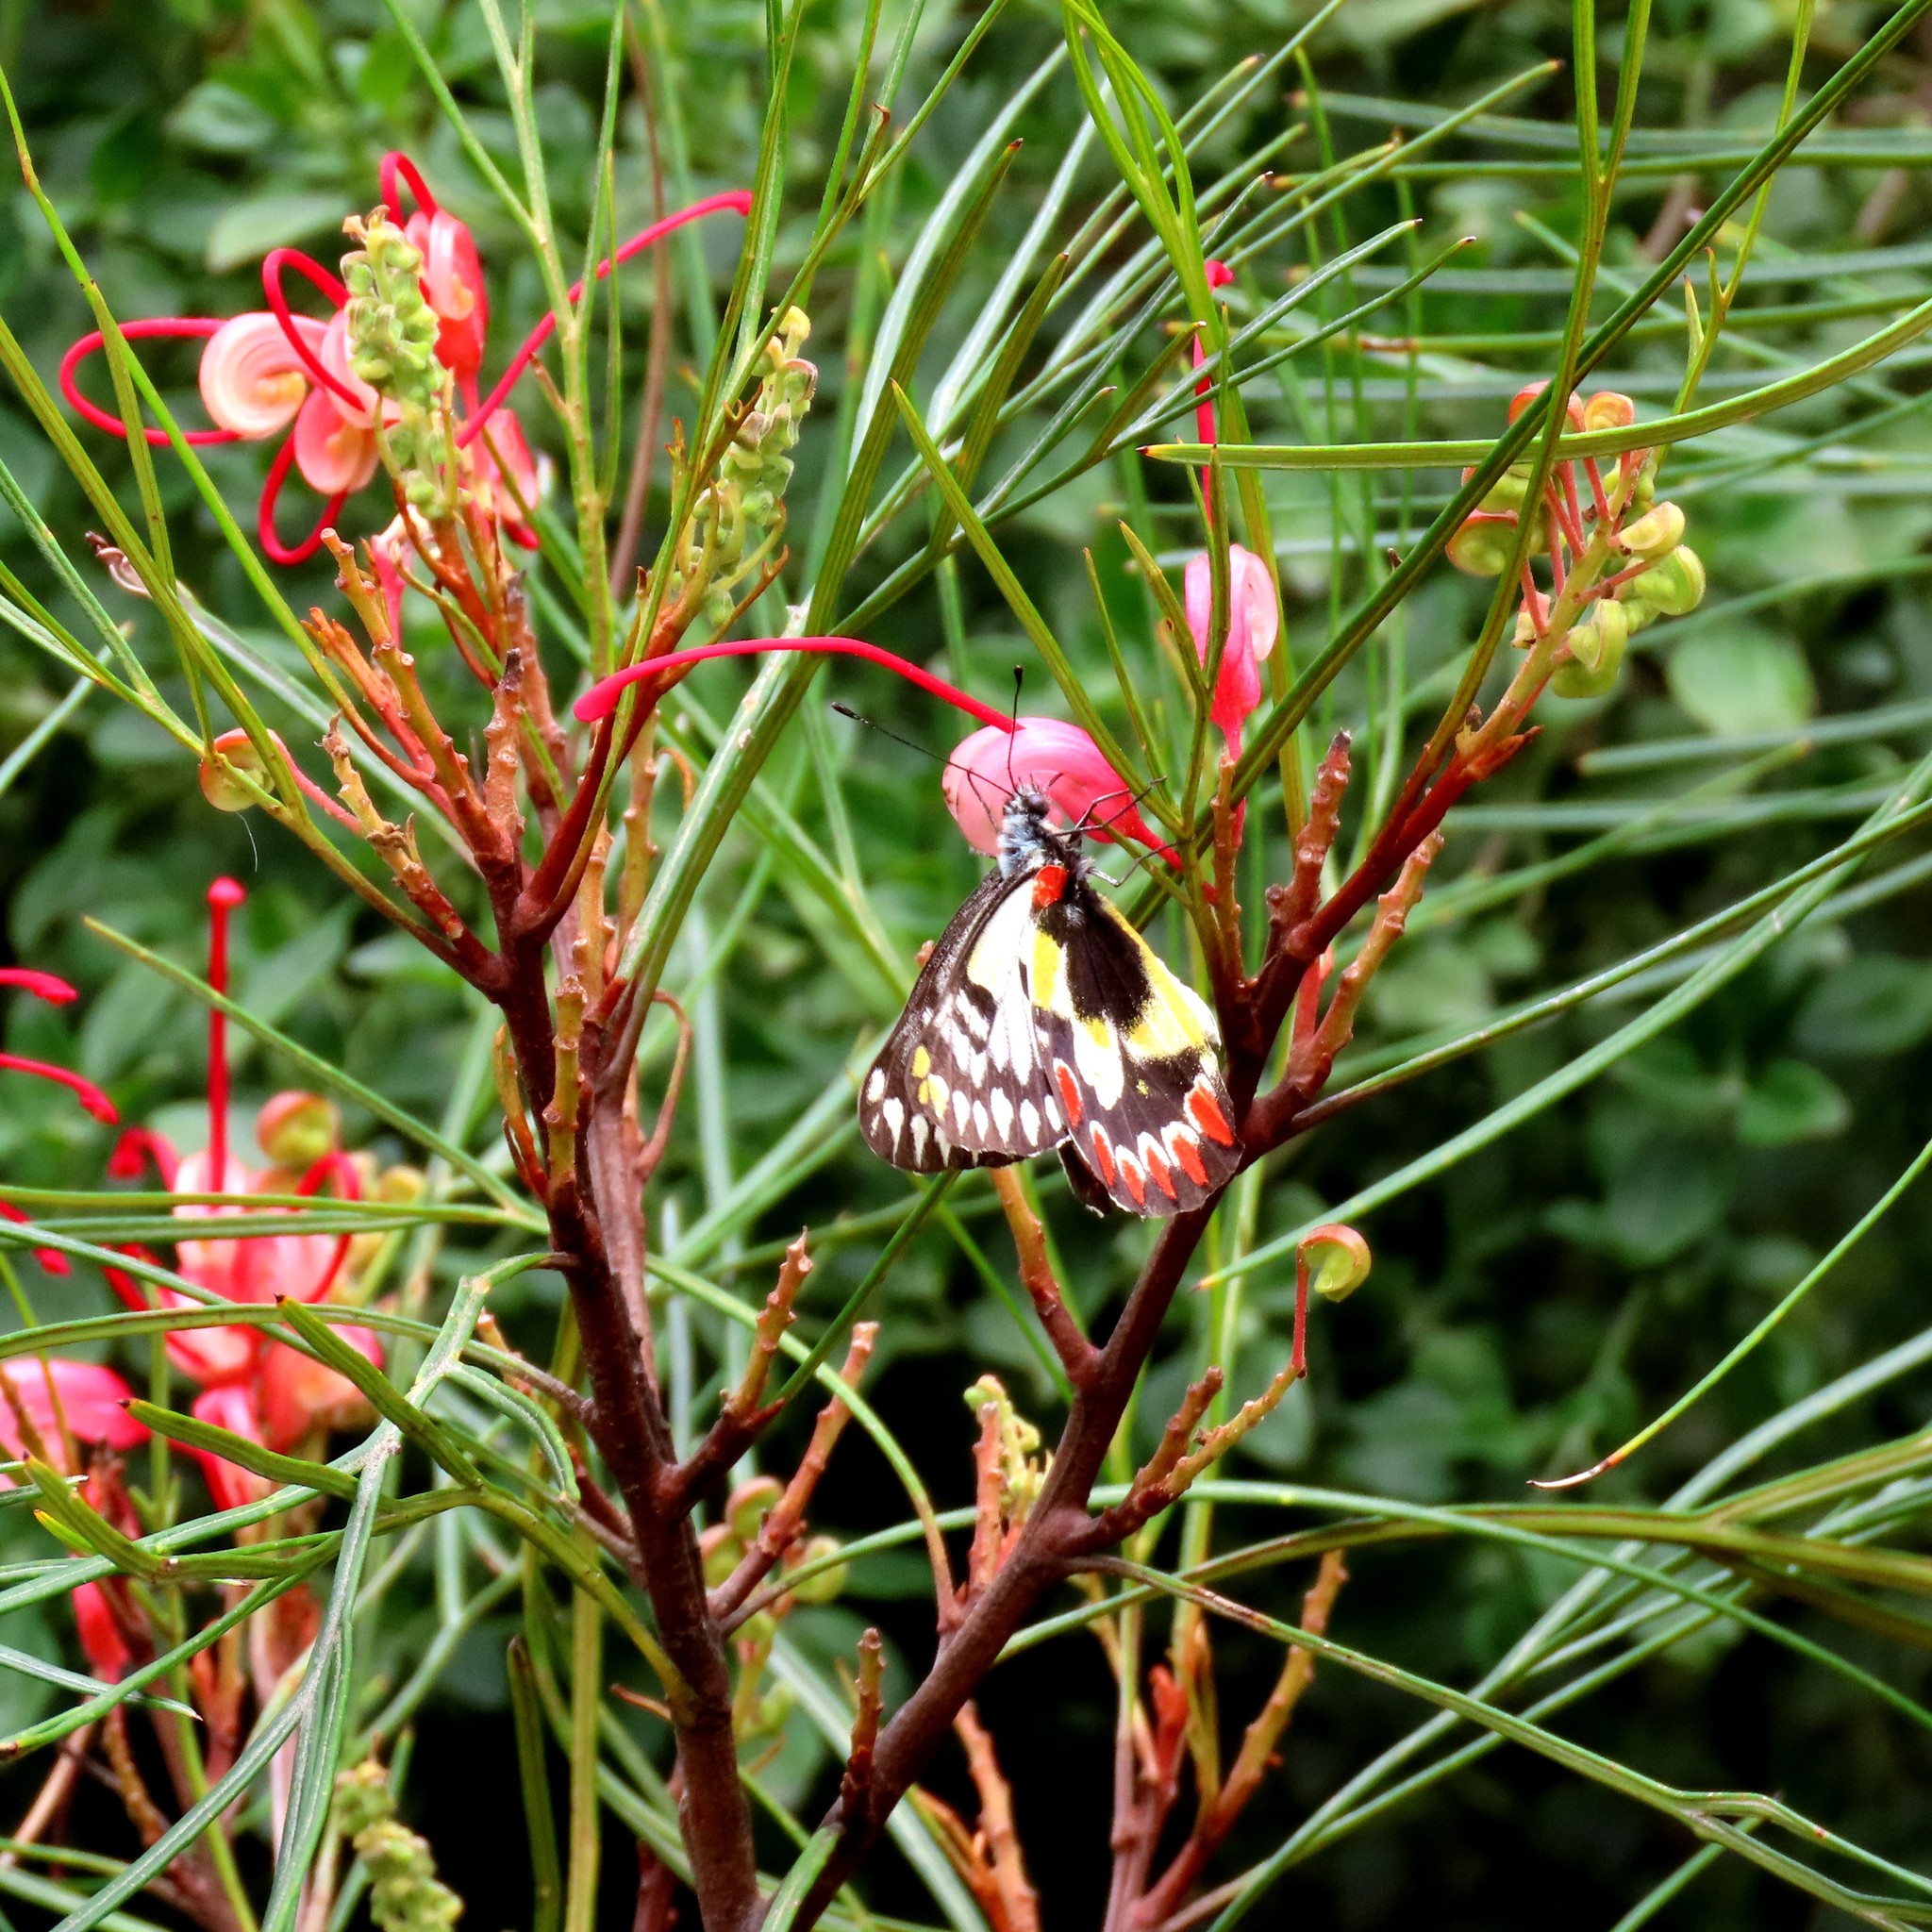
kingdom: Animalia
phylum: Arthropoda
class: Insecta
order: Lepidoptera
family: Pieridae
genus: Delias
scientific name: Delias aganippe
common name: Red-spotted jezebel
